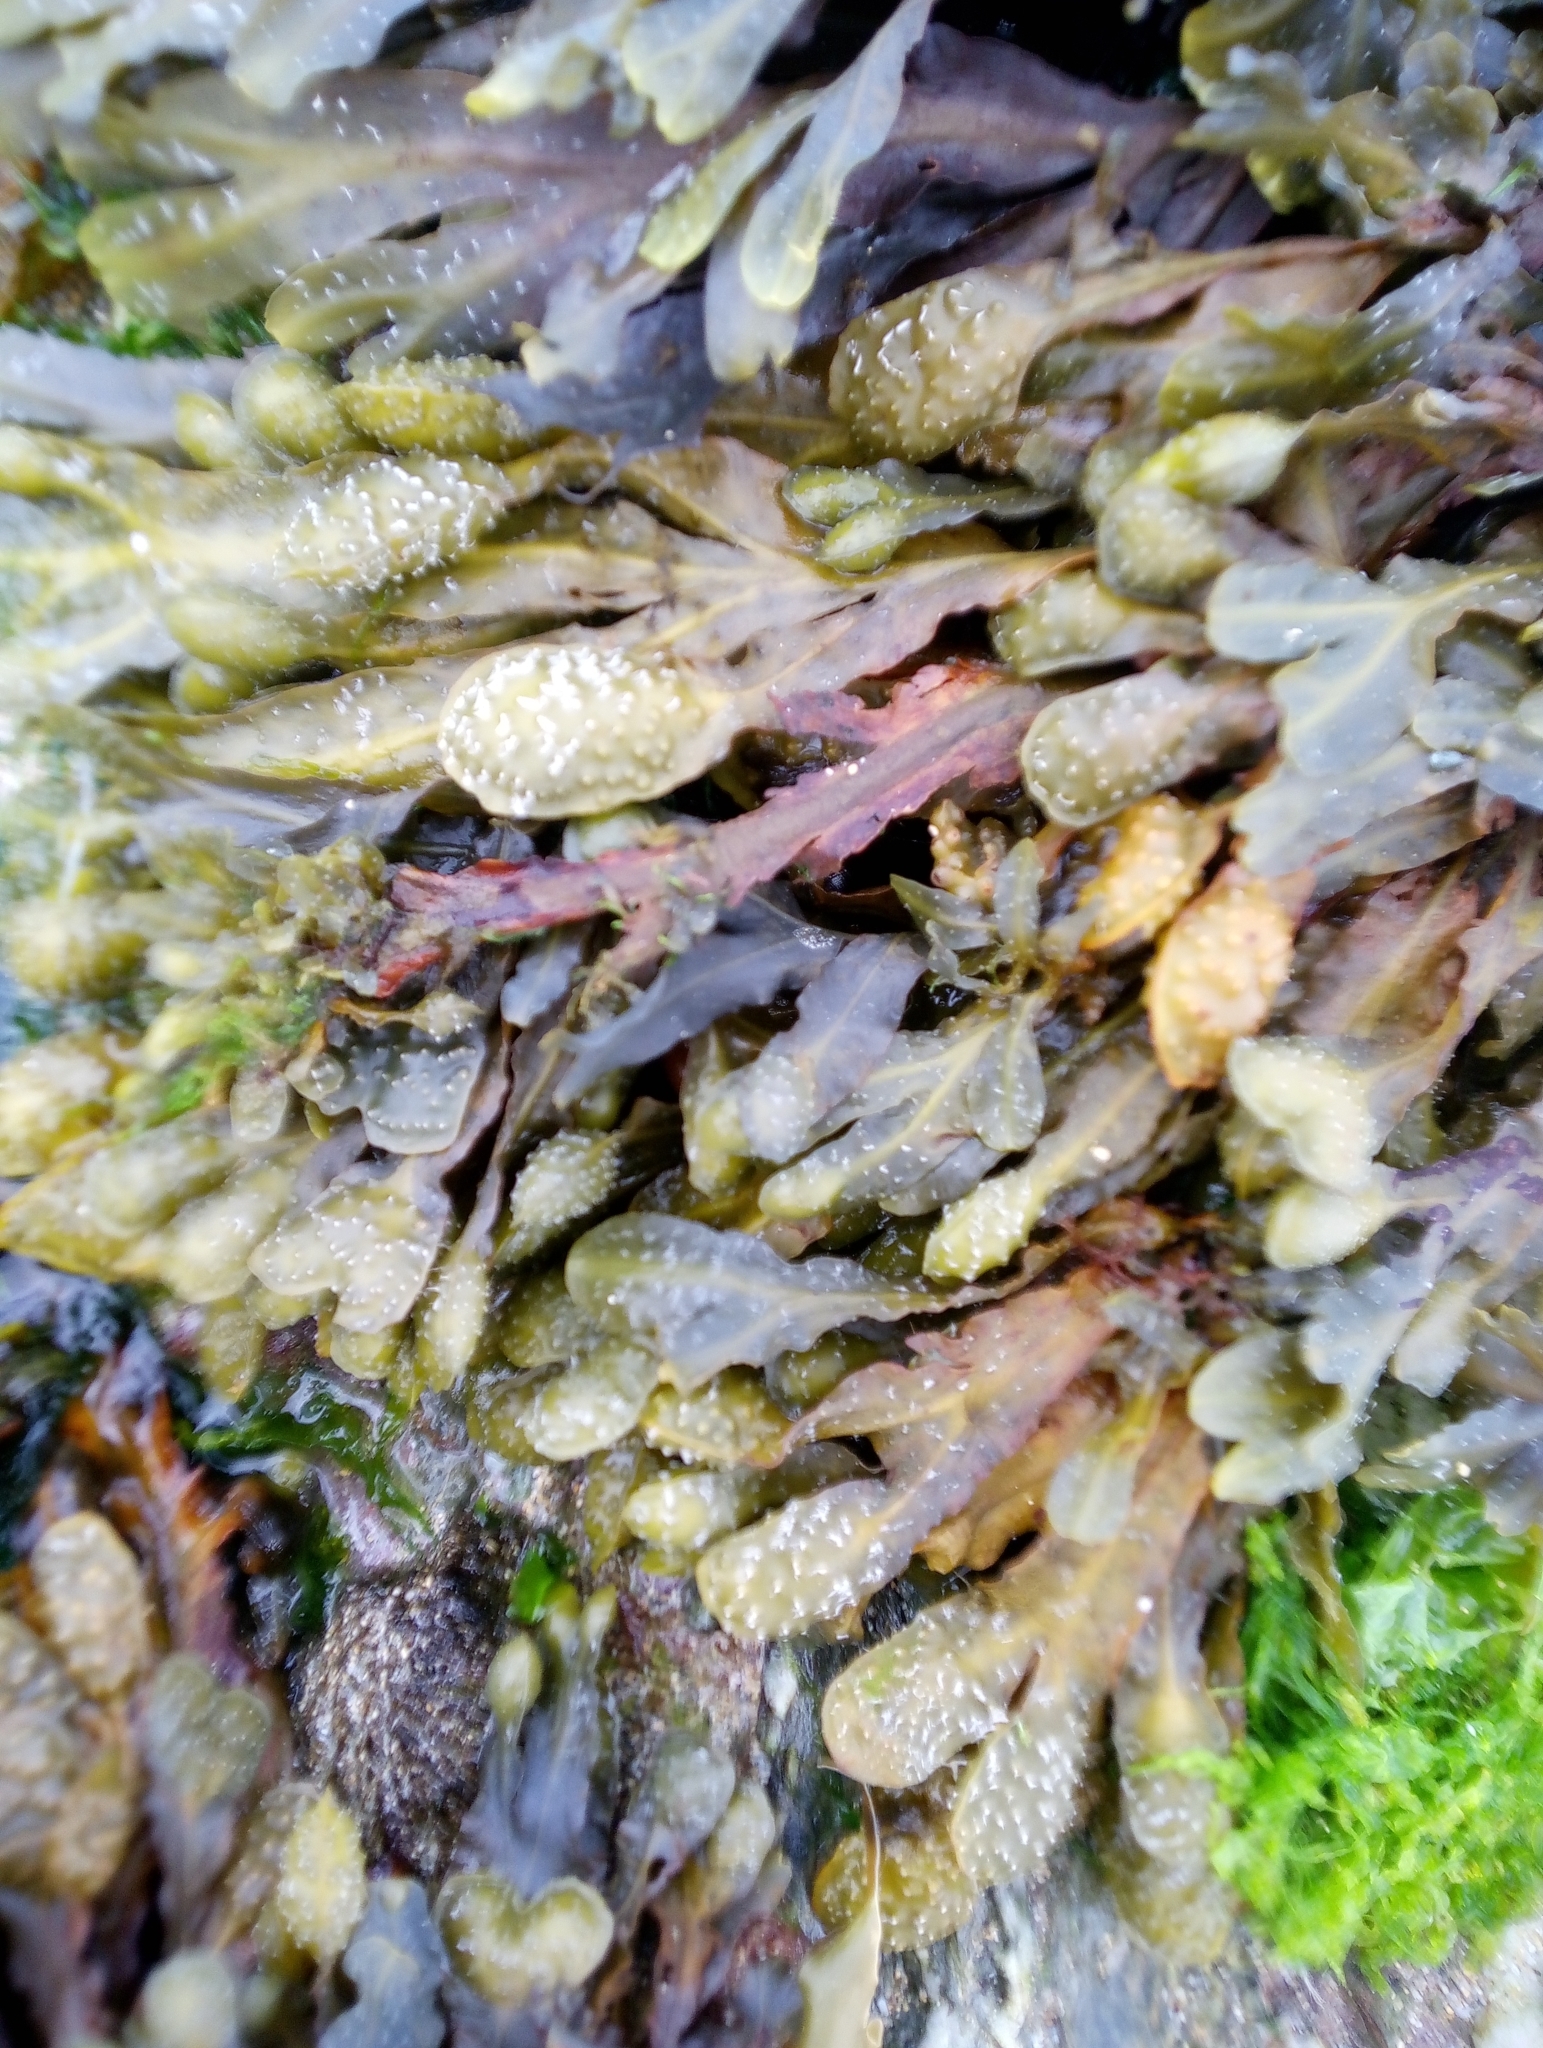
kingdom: Chromista
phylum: Ochrophyta
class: Phaeophyceae
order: Fucales
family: Fucaceae
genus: Fucus
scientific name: Fucus spiralis
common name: Spiral wrack
